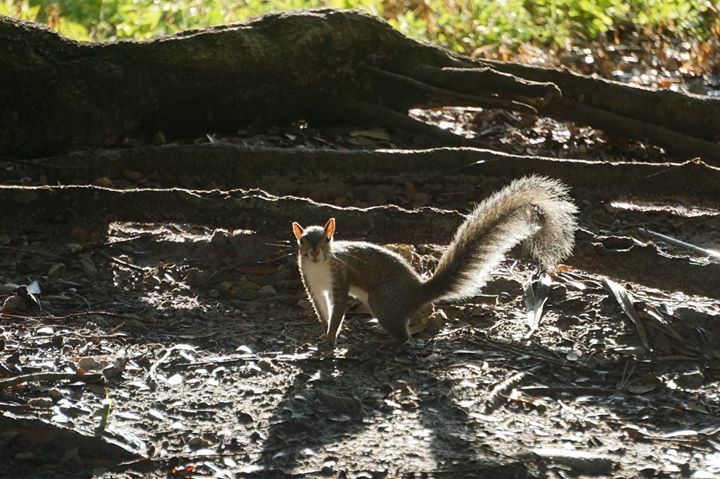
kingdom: Animalia
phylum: Chordata
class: Mammalia
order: Rodentia
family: Sciuridae
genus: Sciurus
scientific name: Sciurus carolinensis
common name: Eastern gray squirrel
